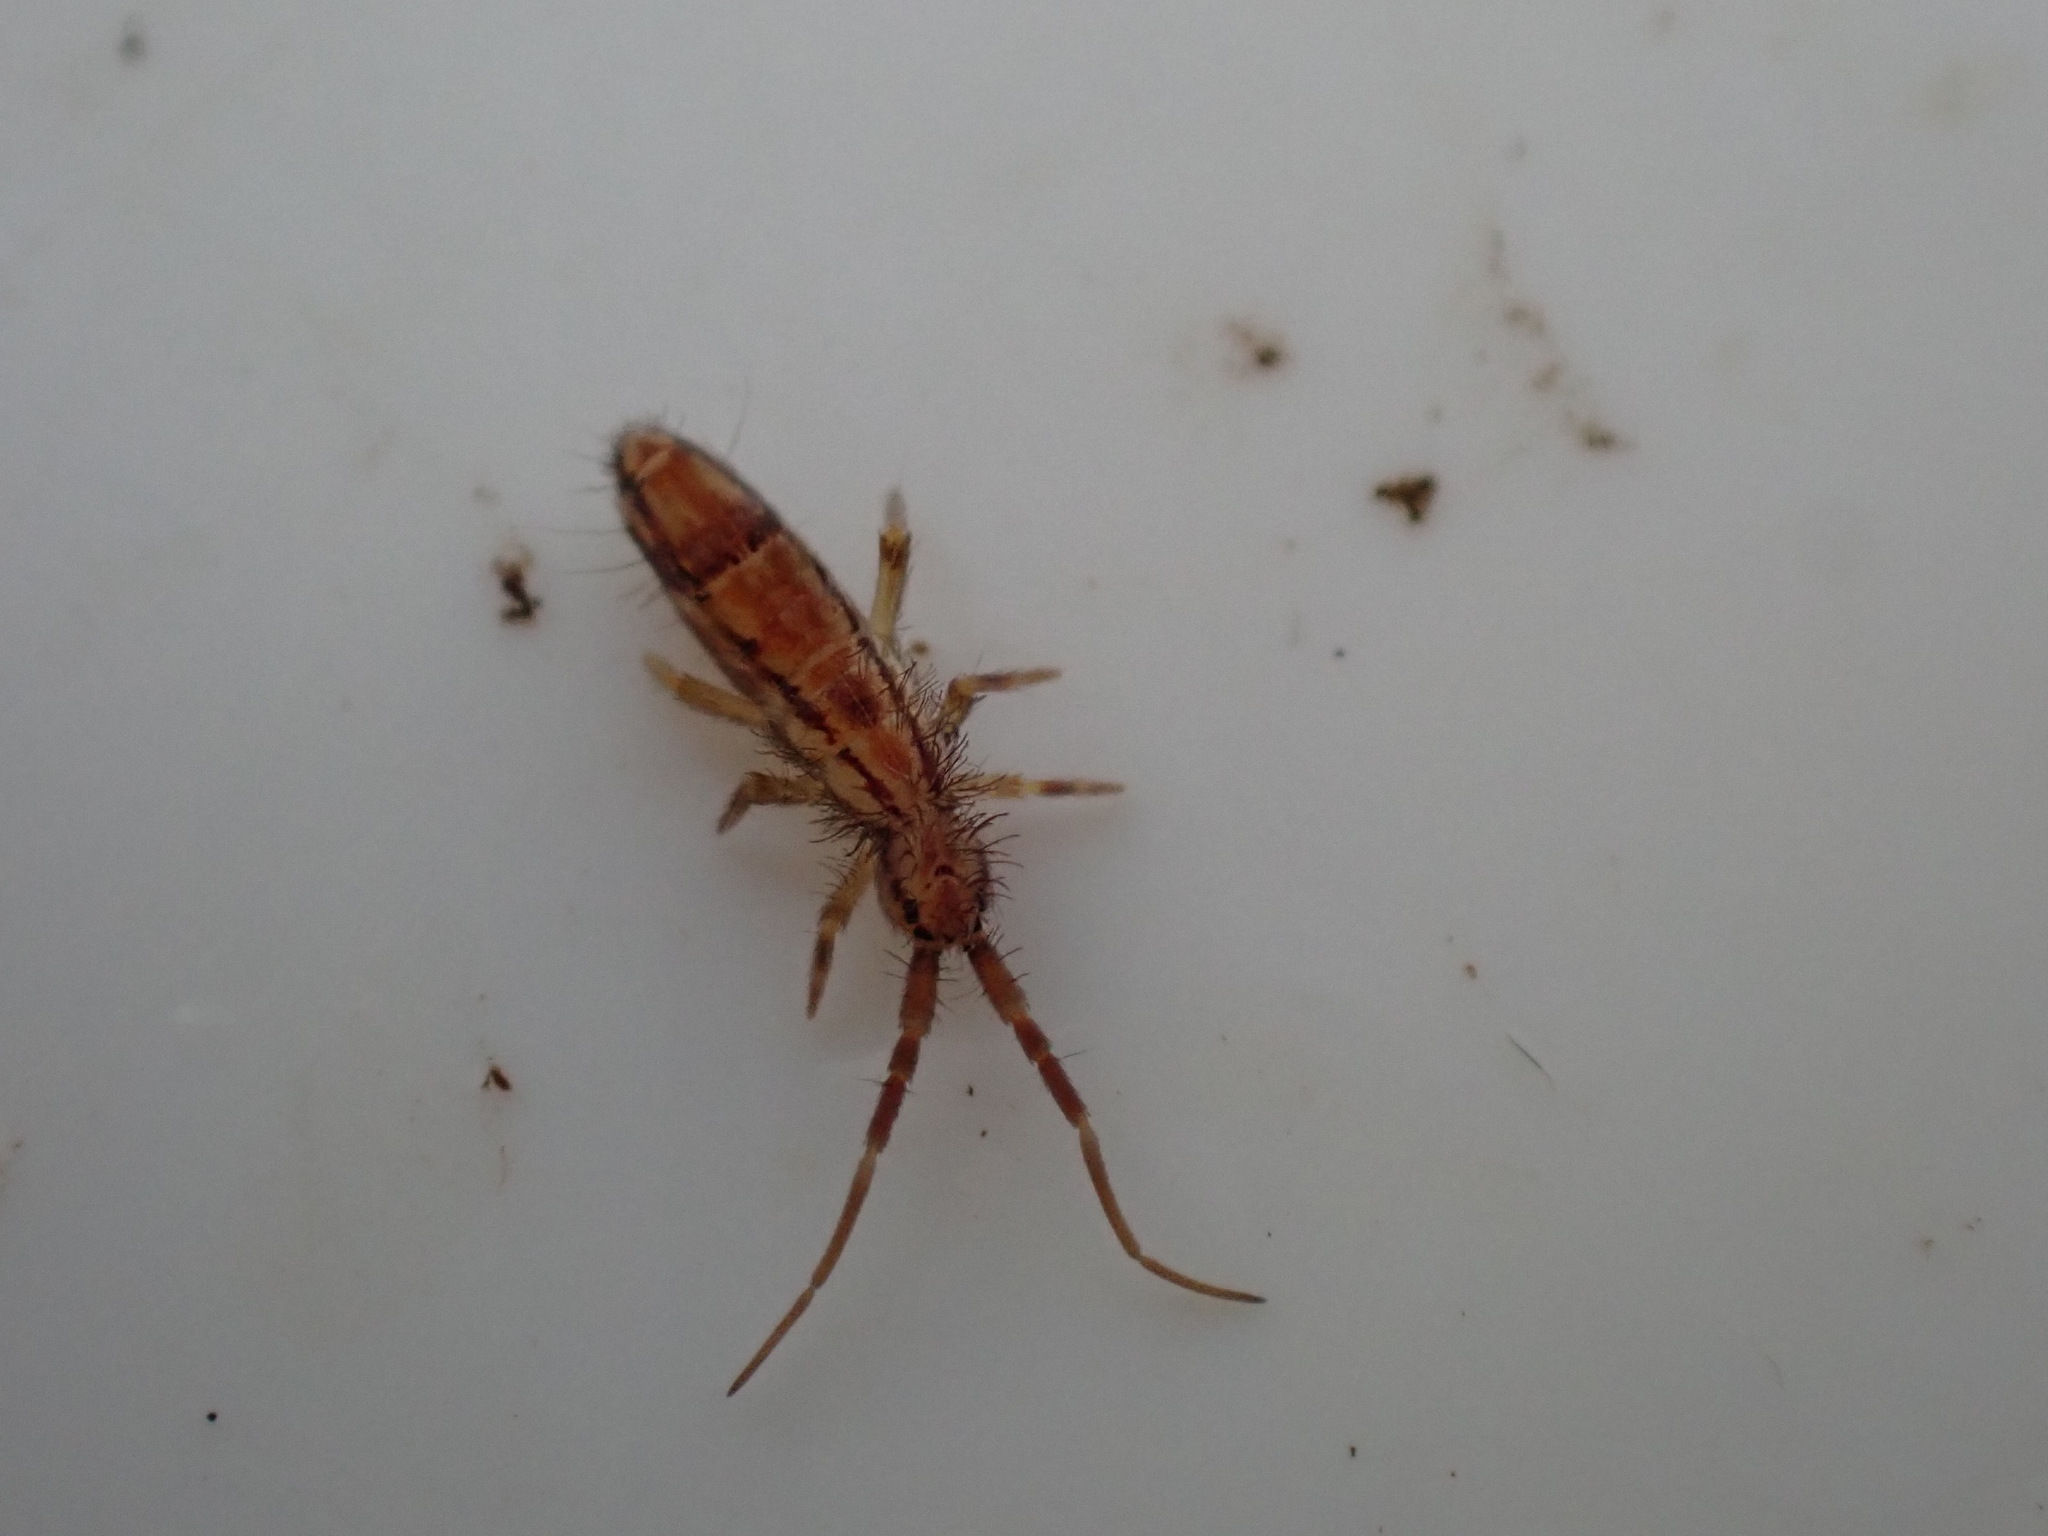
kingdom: Animalia
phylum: Arthropoda
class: Collembola
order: Entomobryomorpha
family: Entomobryidae
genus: Entomobrya
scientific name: Entomobrya nivalis
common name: Cosmopolitan springtail
